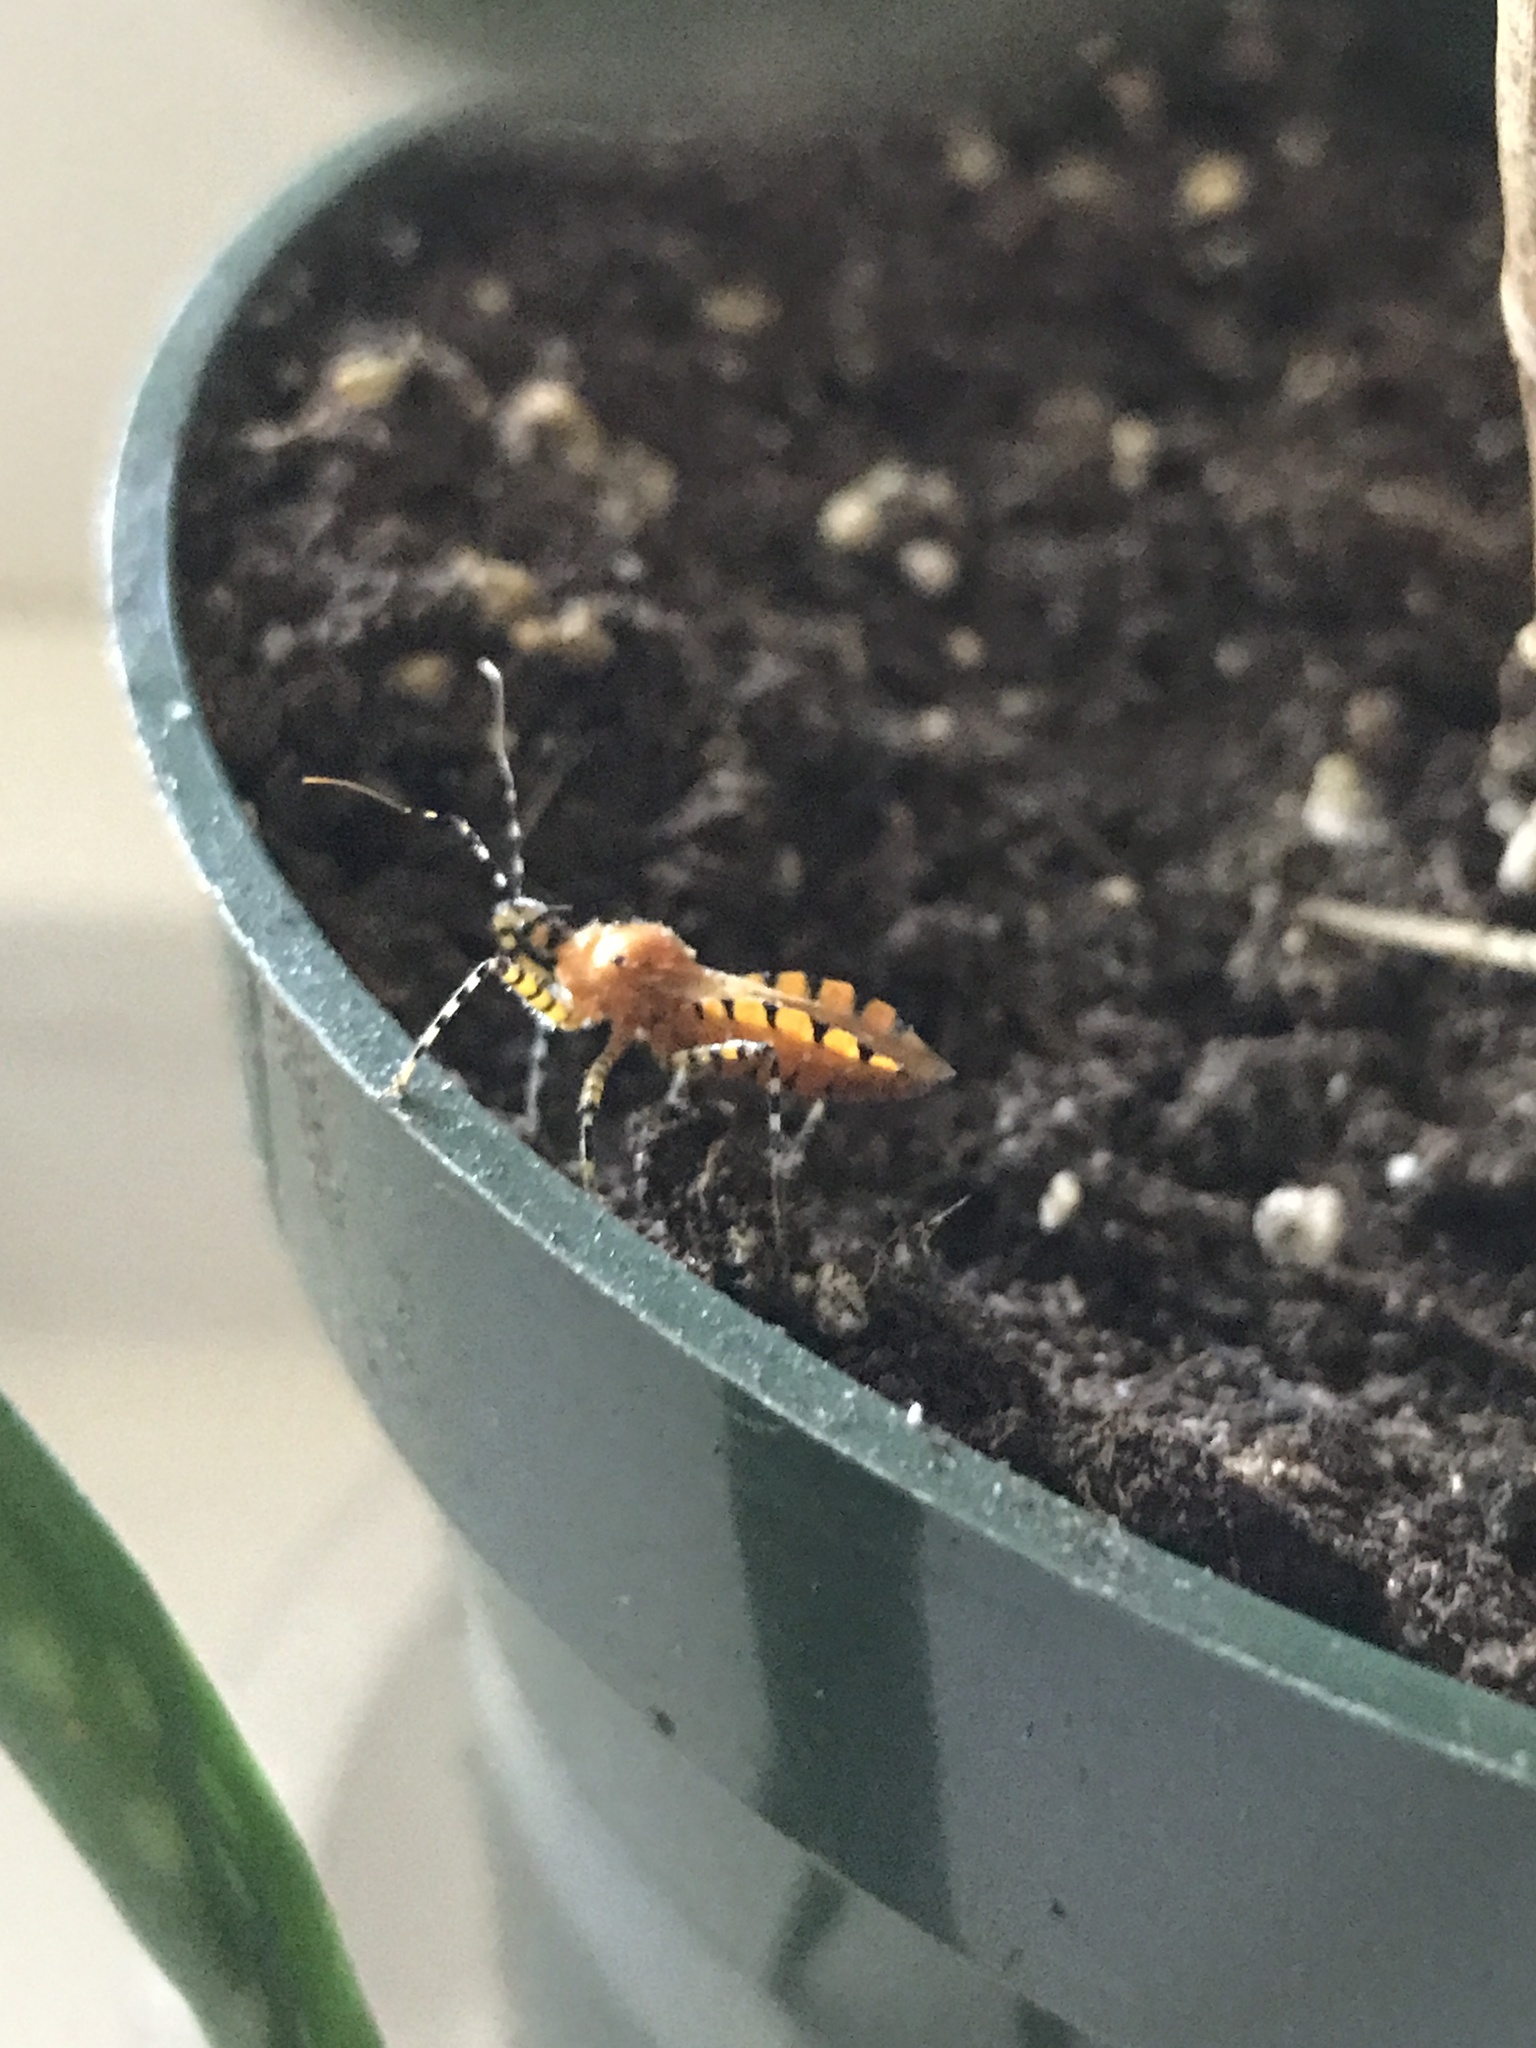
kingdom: Animalia
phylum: Arthropoda
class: Insecta
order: Hemiptera
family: Reduviidae
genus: Pselliopus
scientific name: Pselliopus barberi
